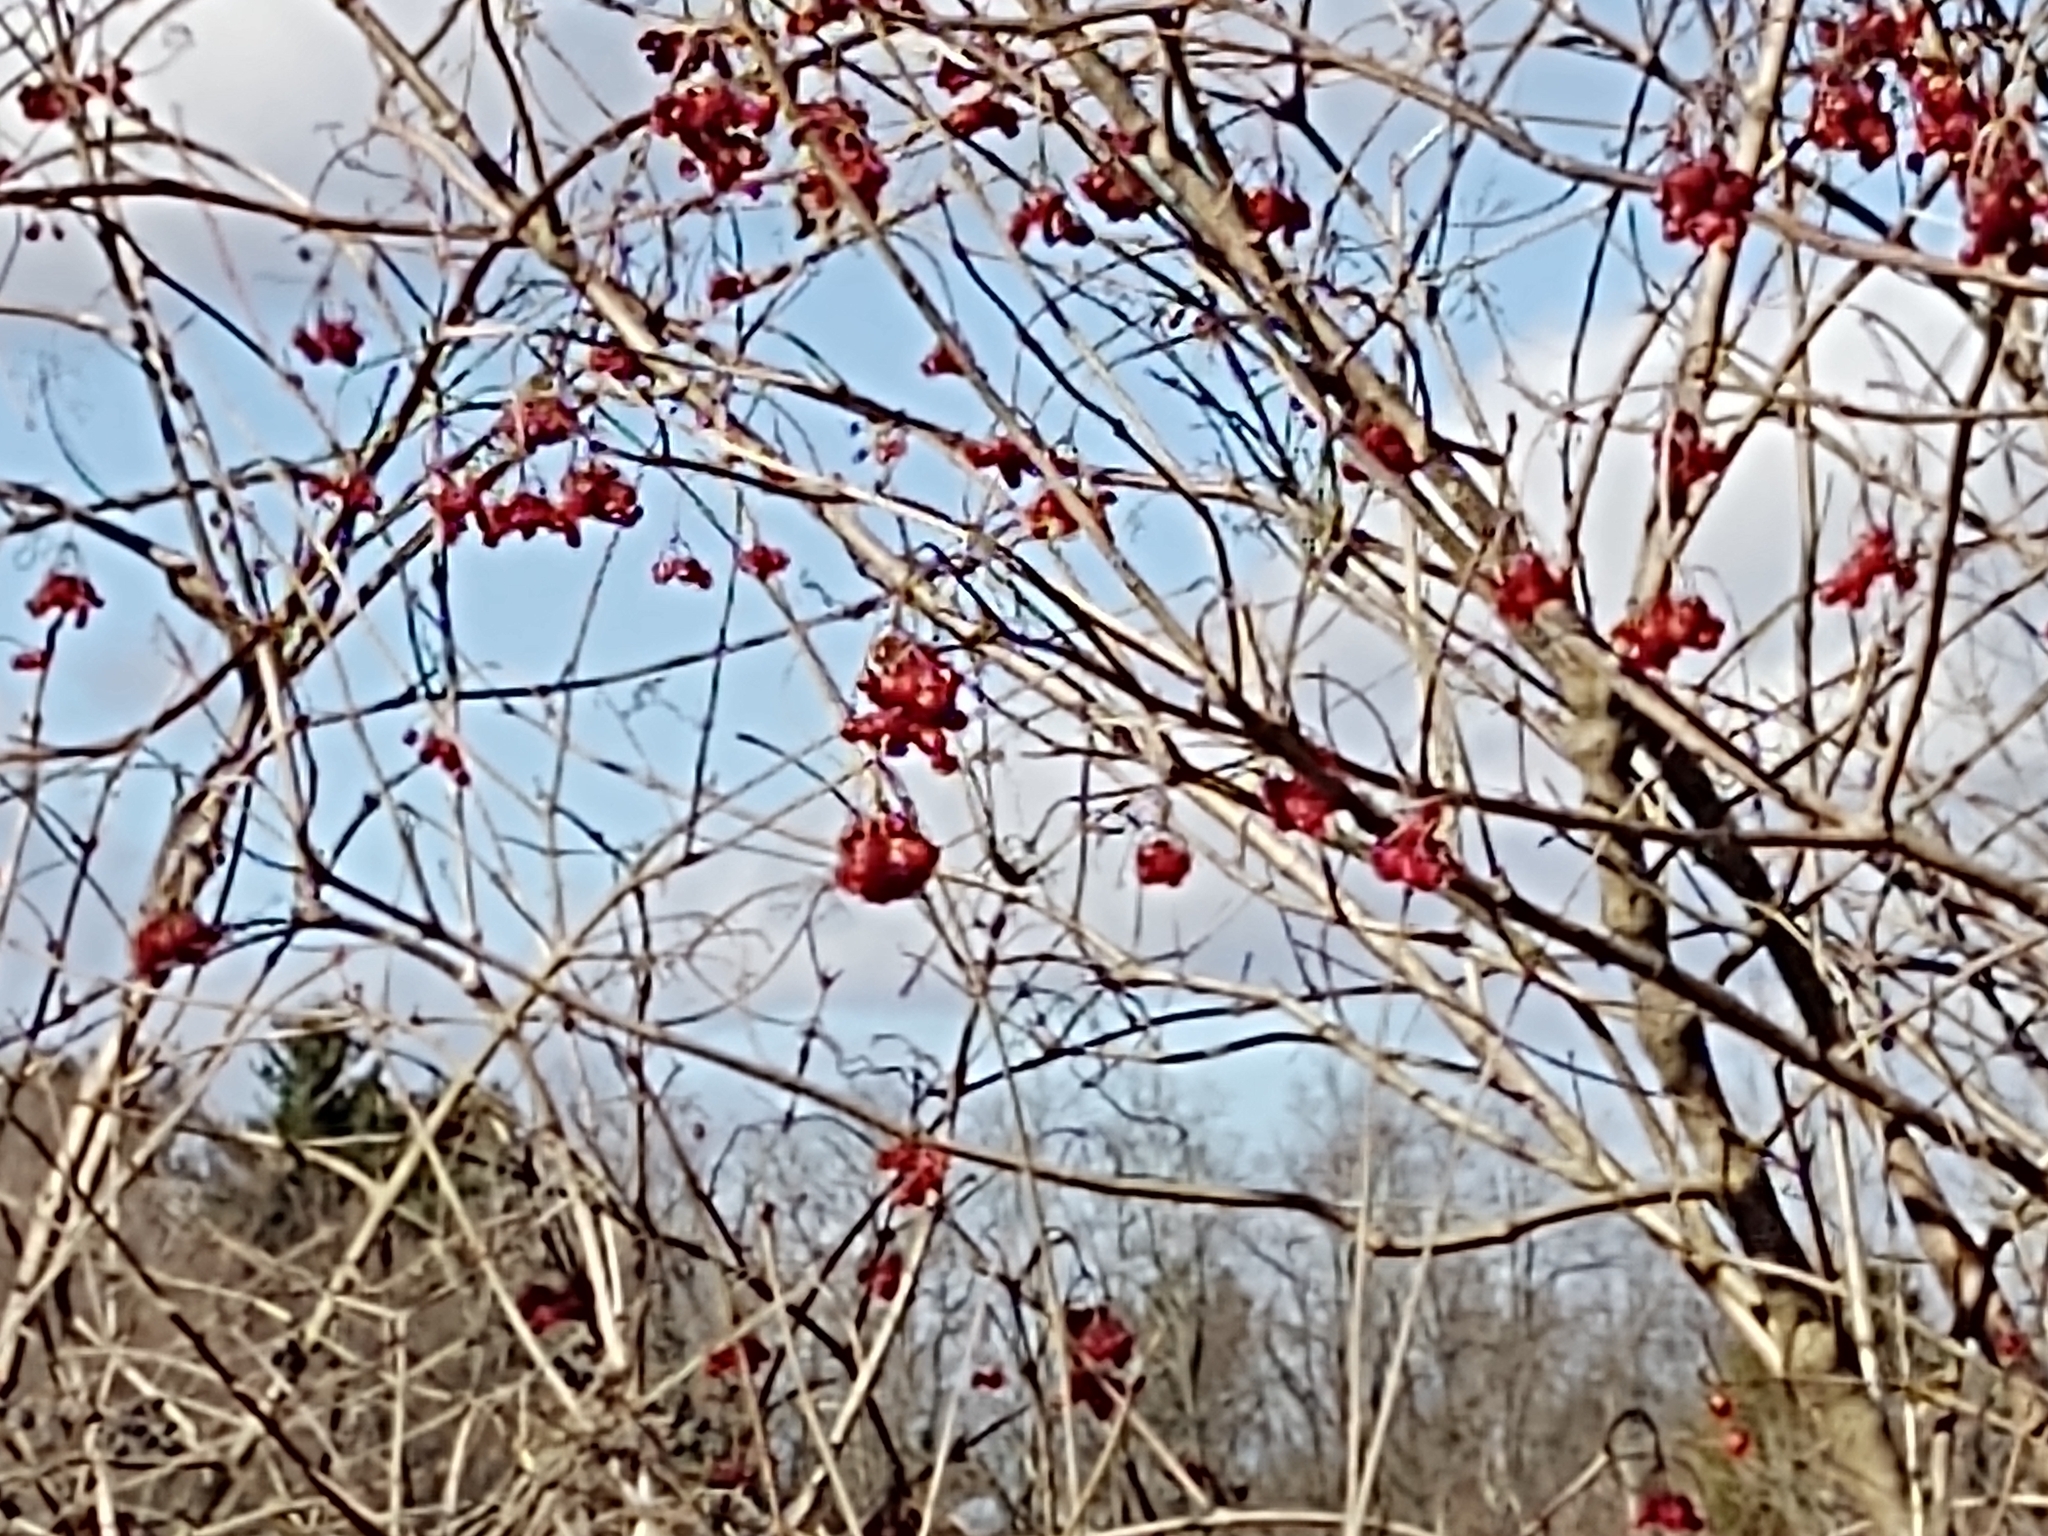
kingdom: Plantae
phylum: Tracheophyta
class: Magnoliopsida
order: Dipsacales
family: Viburnaceae
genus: Viburnum
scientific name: Viburnum opulus
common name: Guelder-rose
